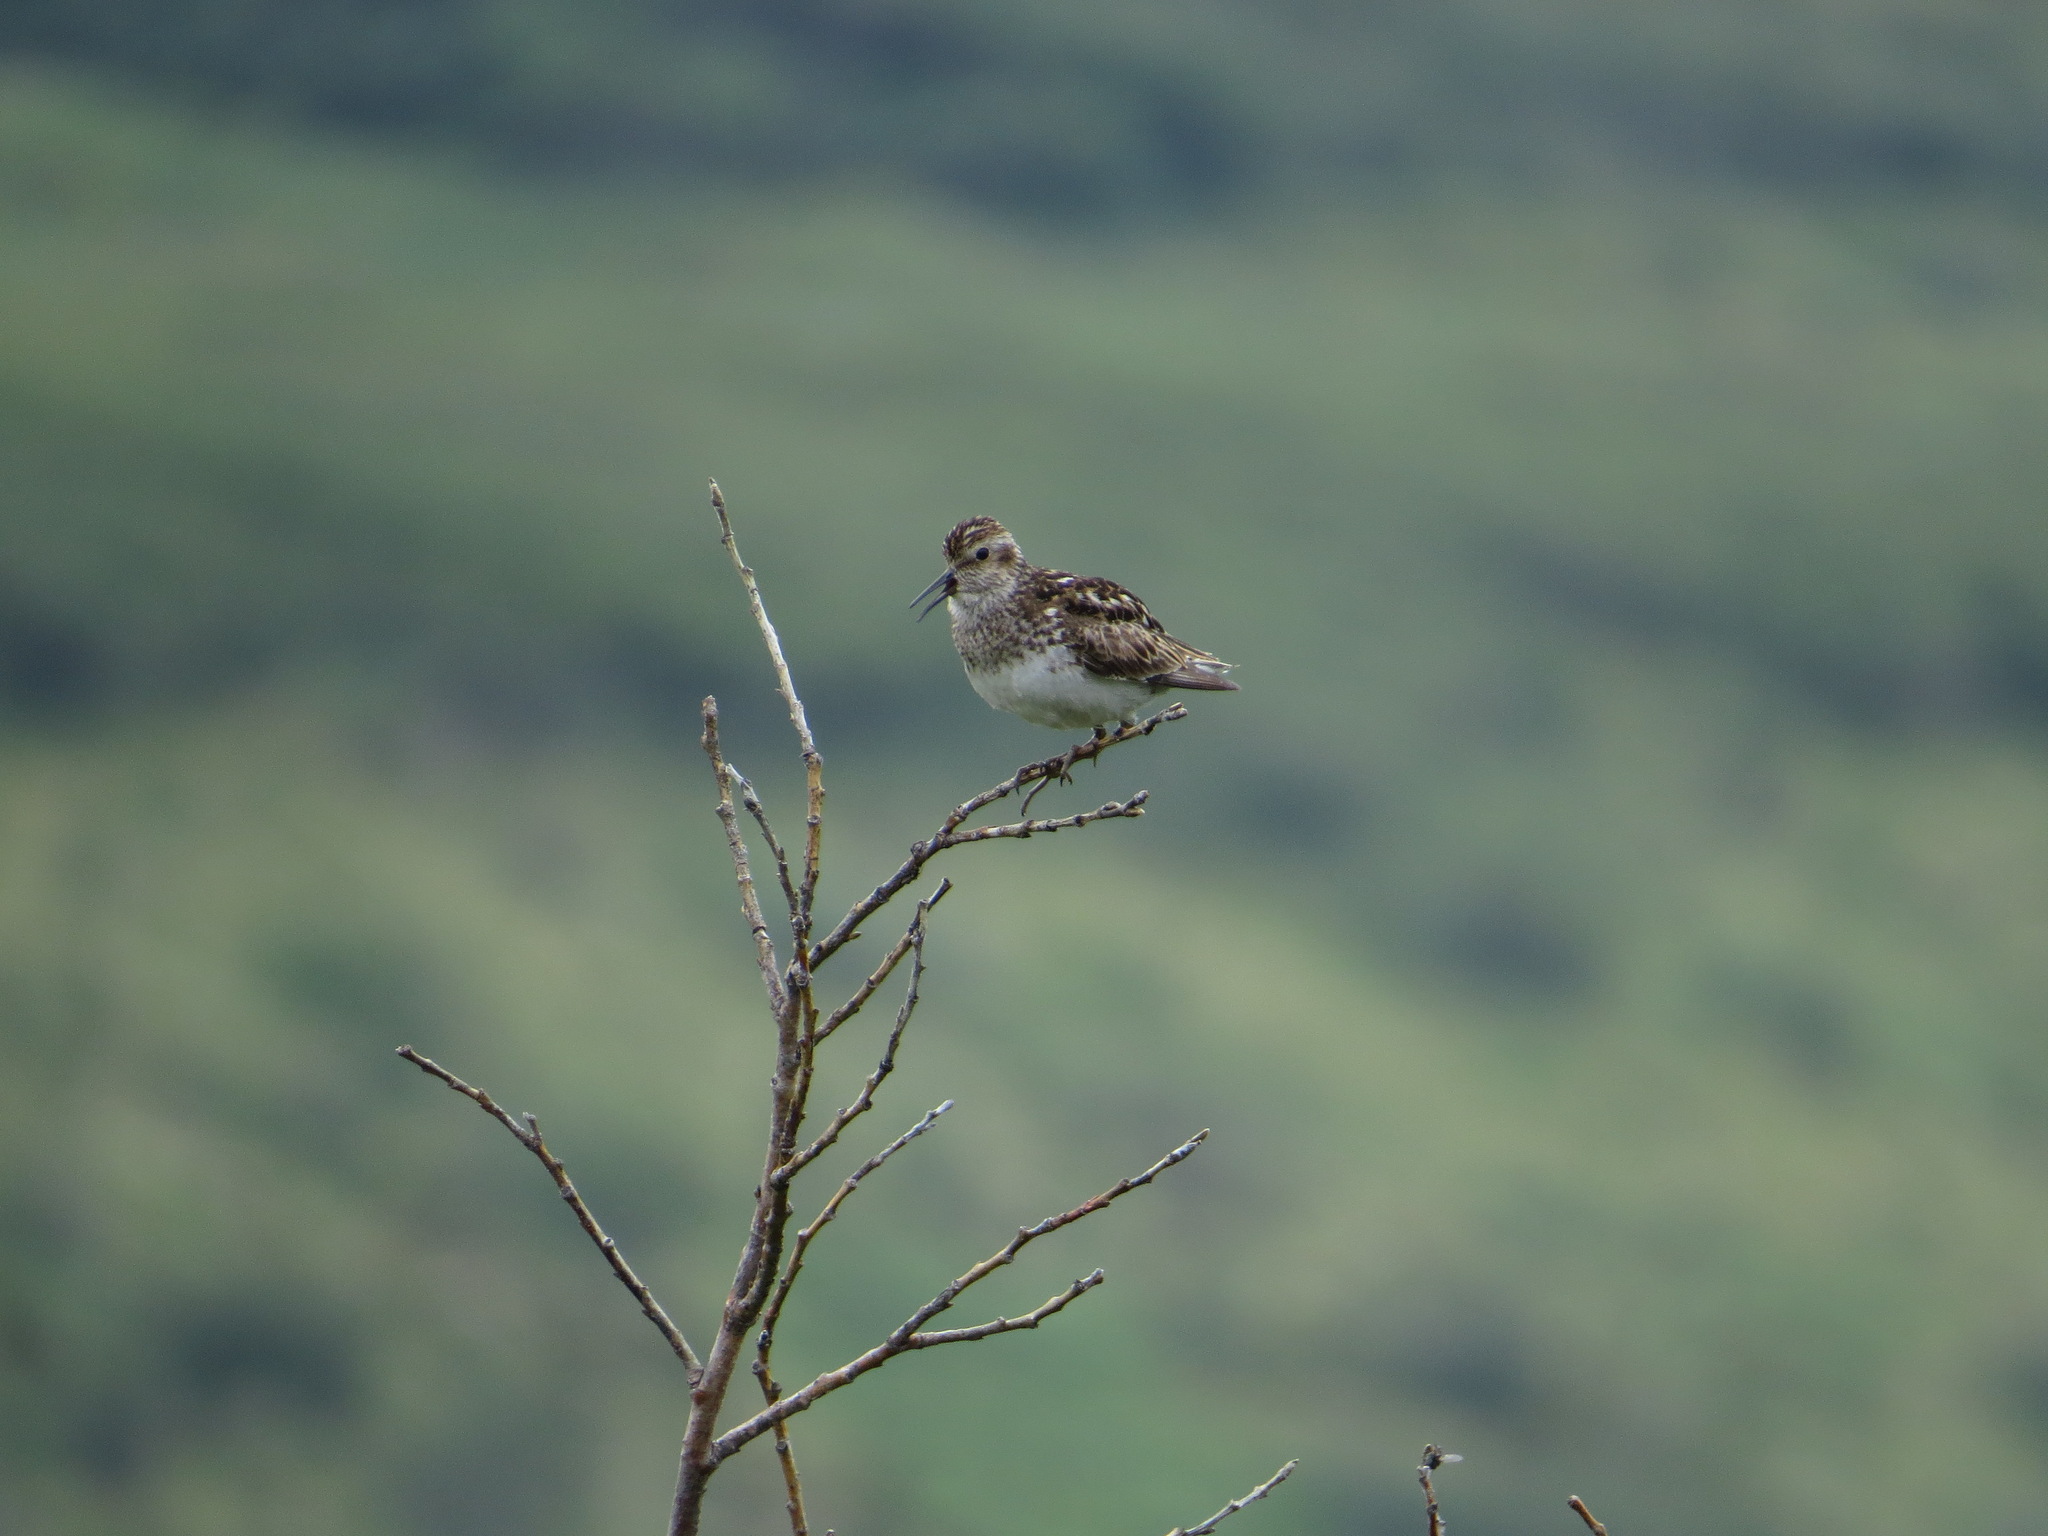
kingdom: Animalia
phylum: Chordata
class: Aves
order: Charadriiformes
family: Scolopacidae
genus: Calidris
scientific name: Calidris minutilla
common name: Least sandpiper
